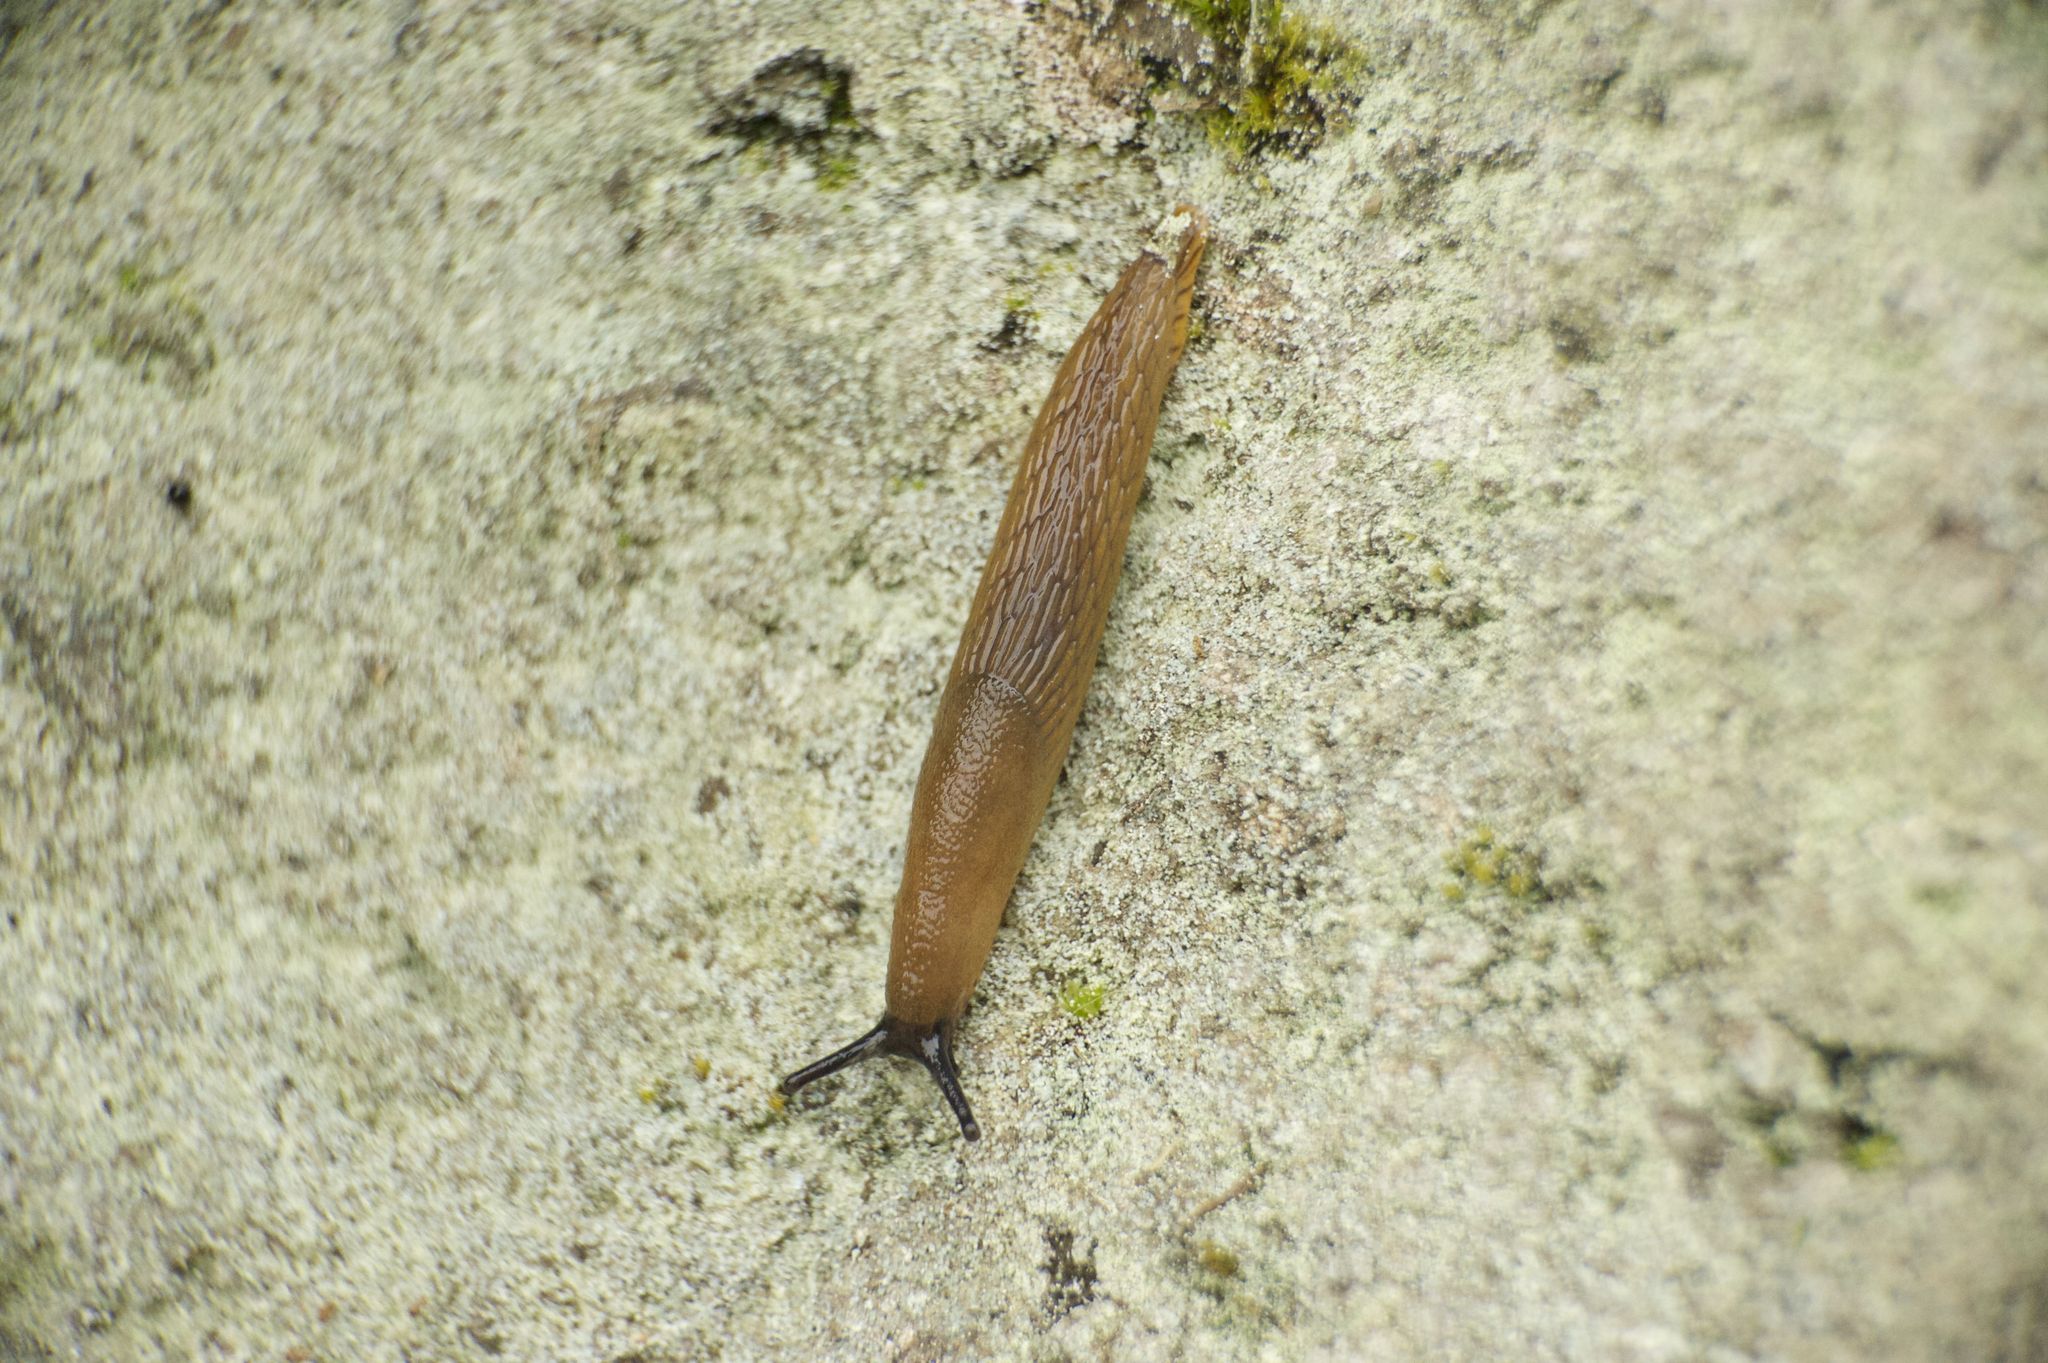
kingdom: Animalia
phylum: Mollusca
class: Gastropoda
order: Stylommatophora
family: Arionidae
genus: Arion
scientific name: Arion
